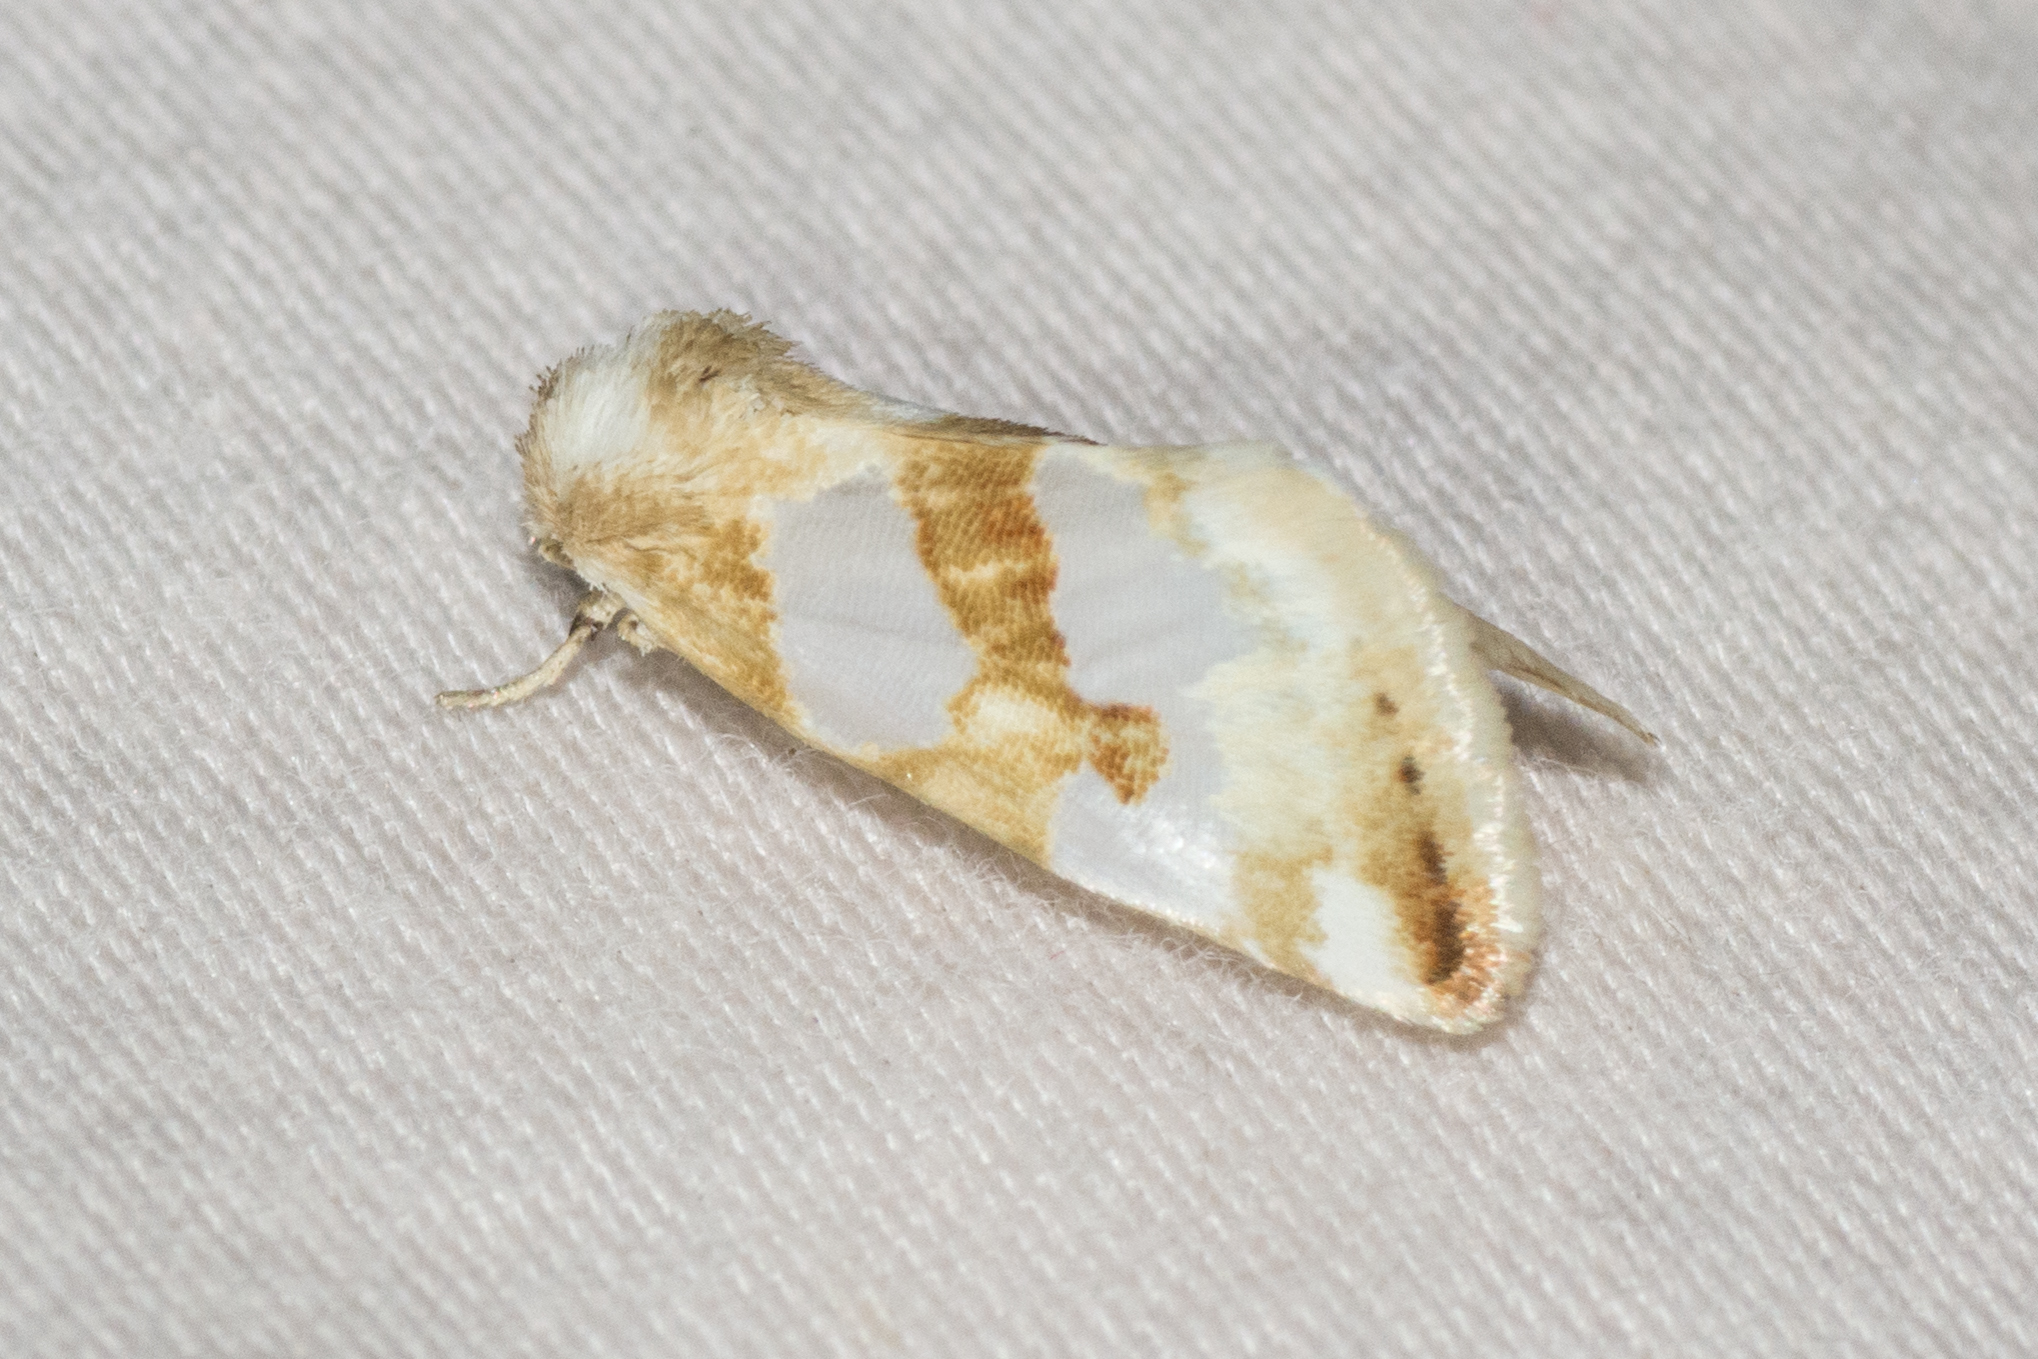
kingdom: Animalia
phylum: Arthropoda
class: Insecta
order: Lepidoptera
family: Noctuidae
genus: Schinia
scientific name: Schinia chrysellus
